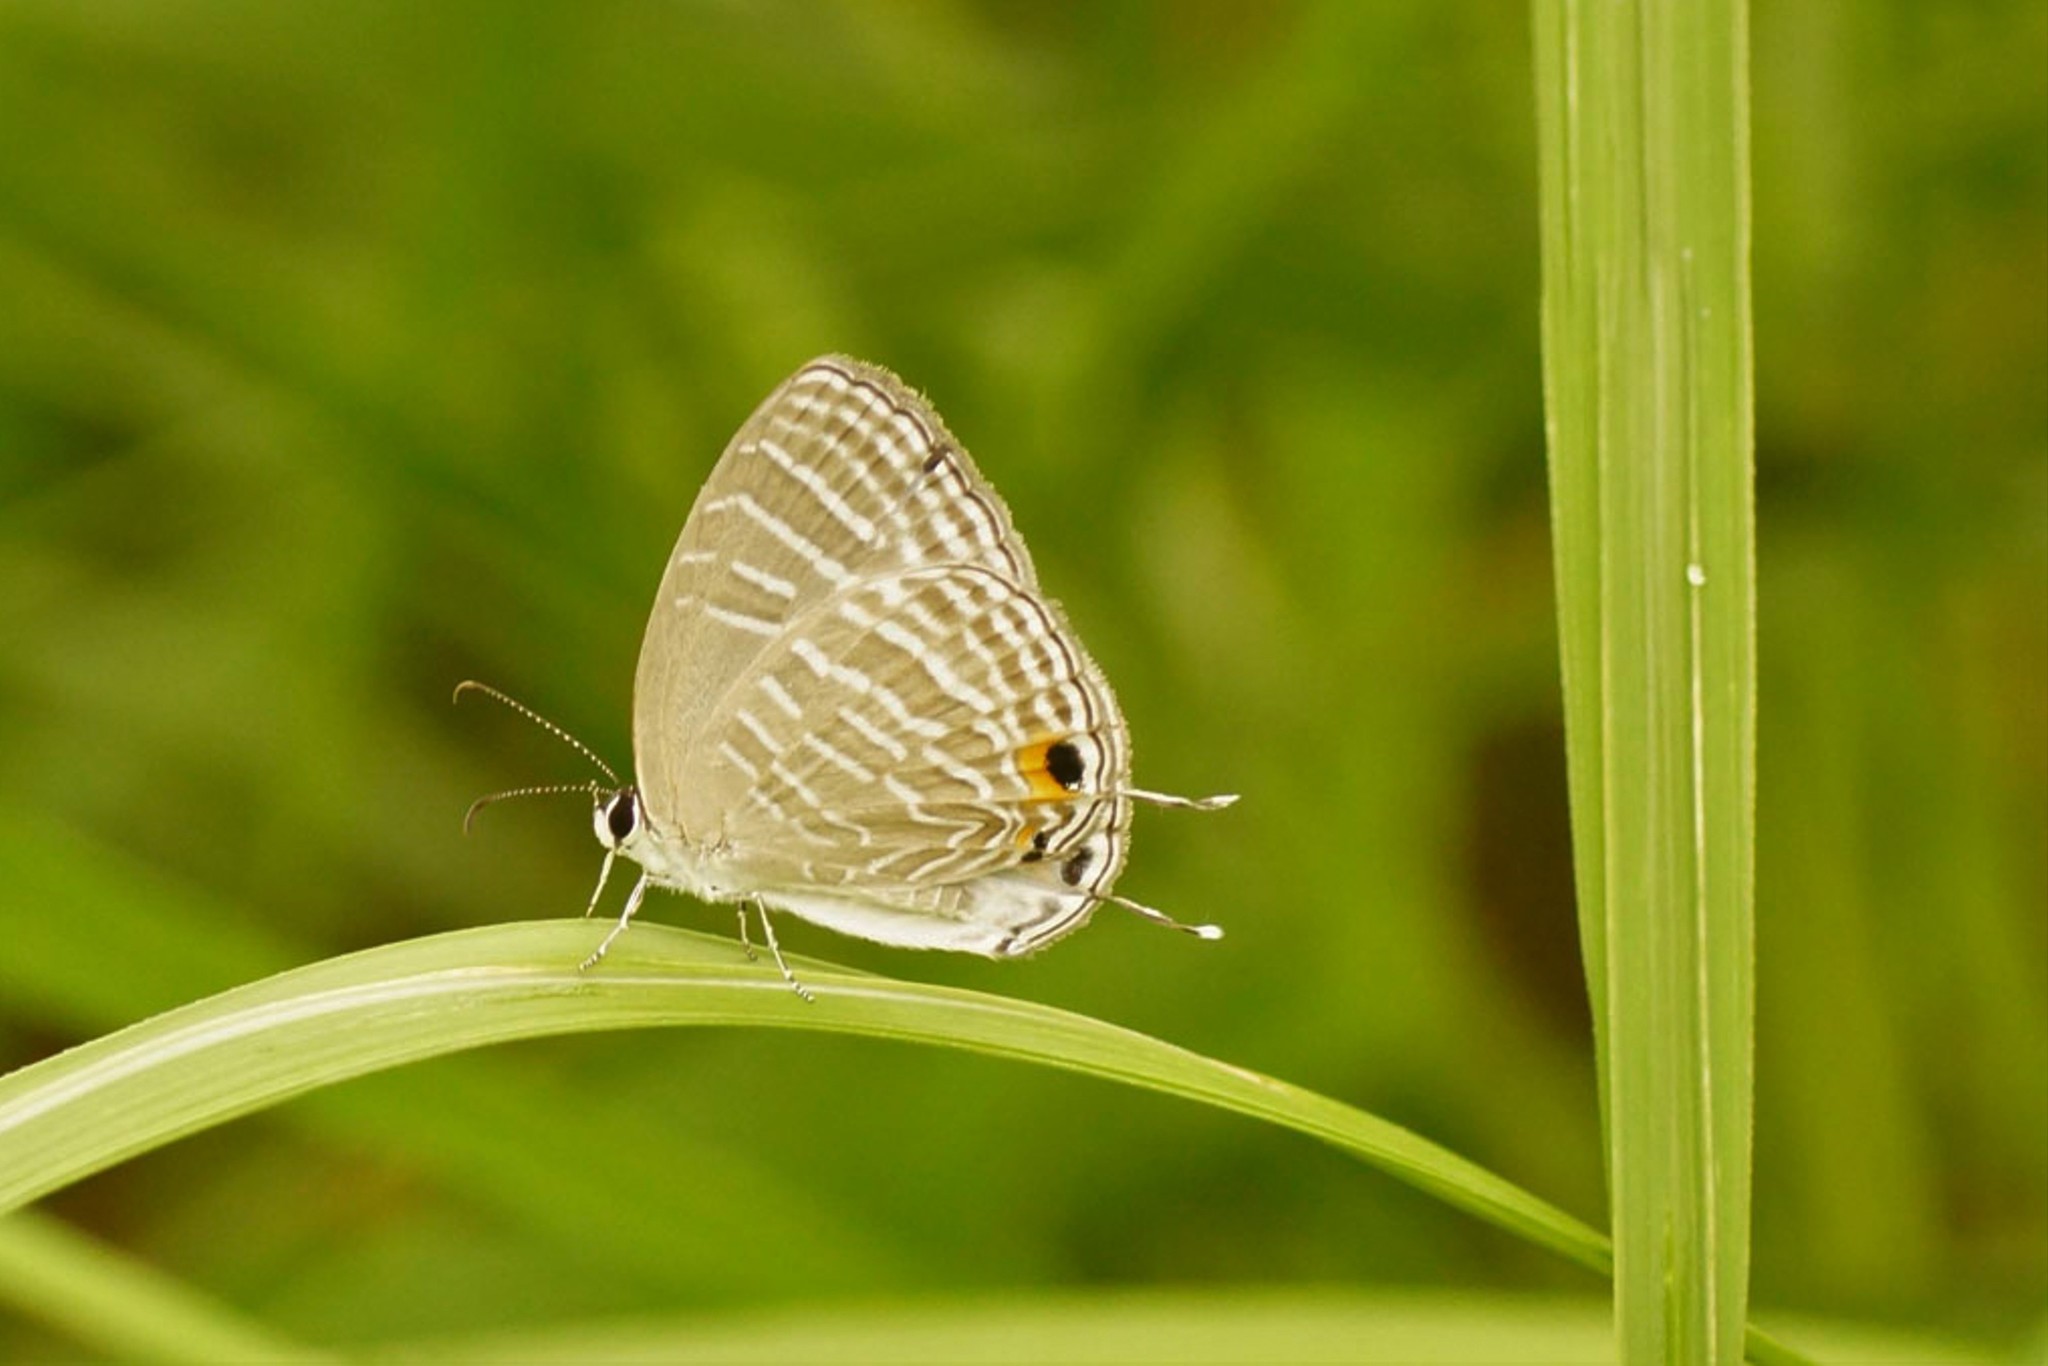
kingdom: Animalia
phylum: Arthropoda
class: Insecta
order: Lepidoptera
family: Lycaenidae
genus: Jamides
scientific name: Jamides celeno
